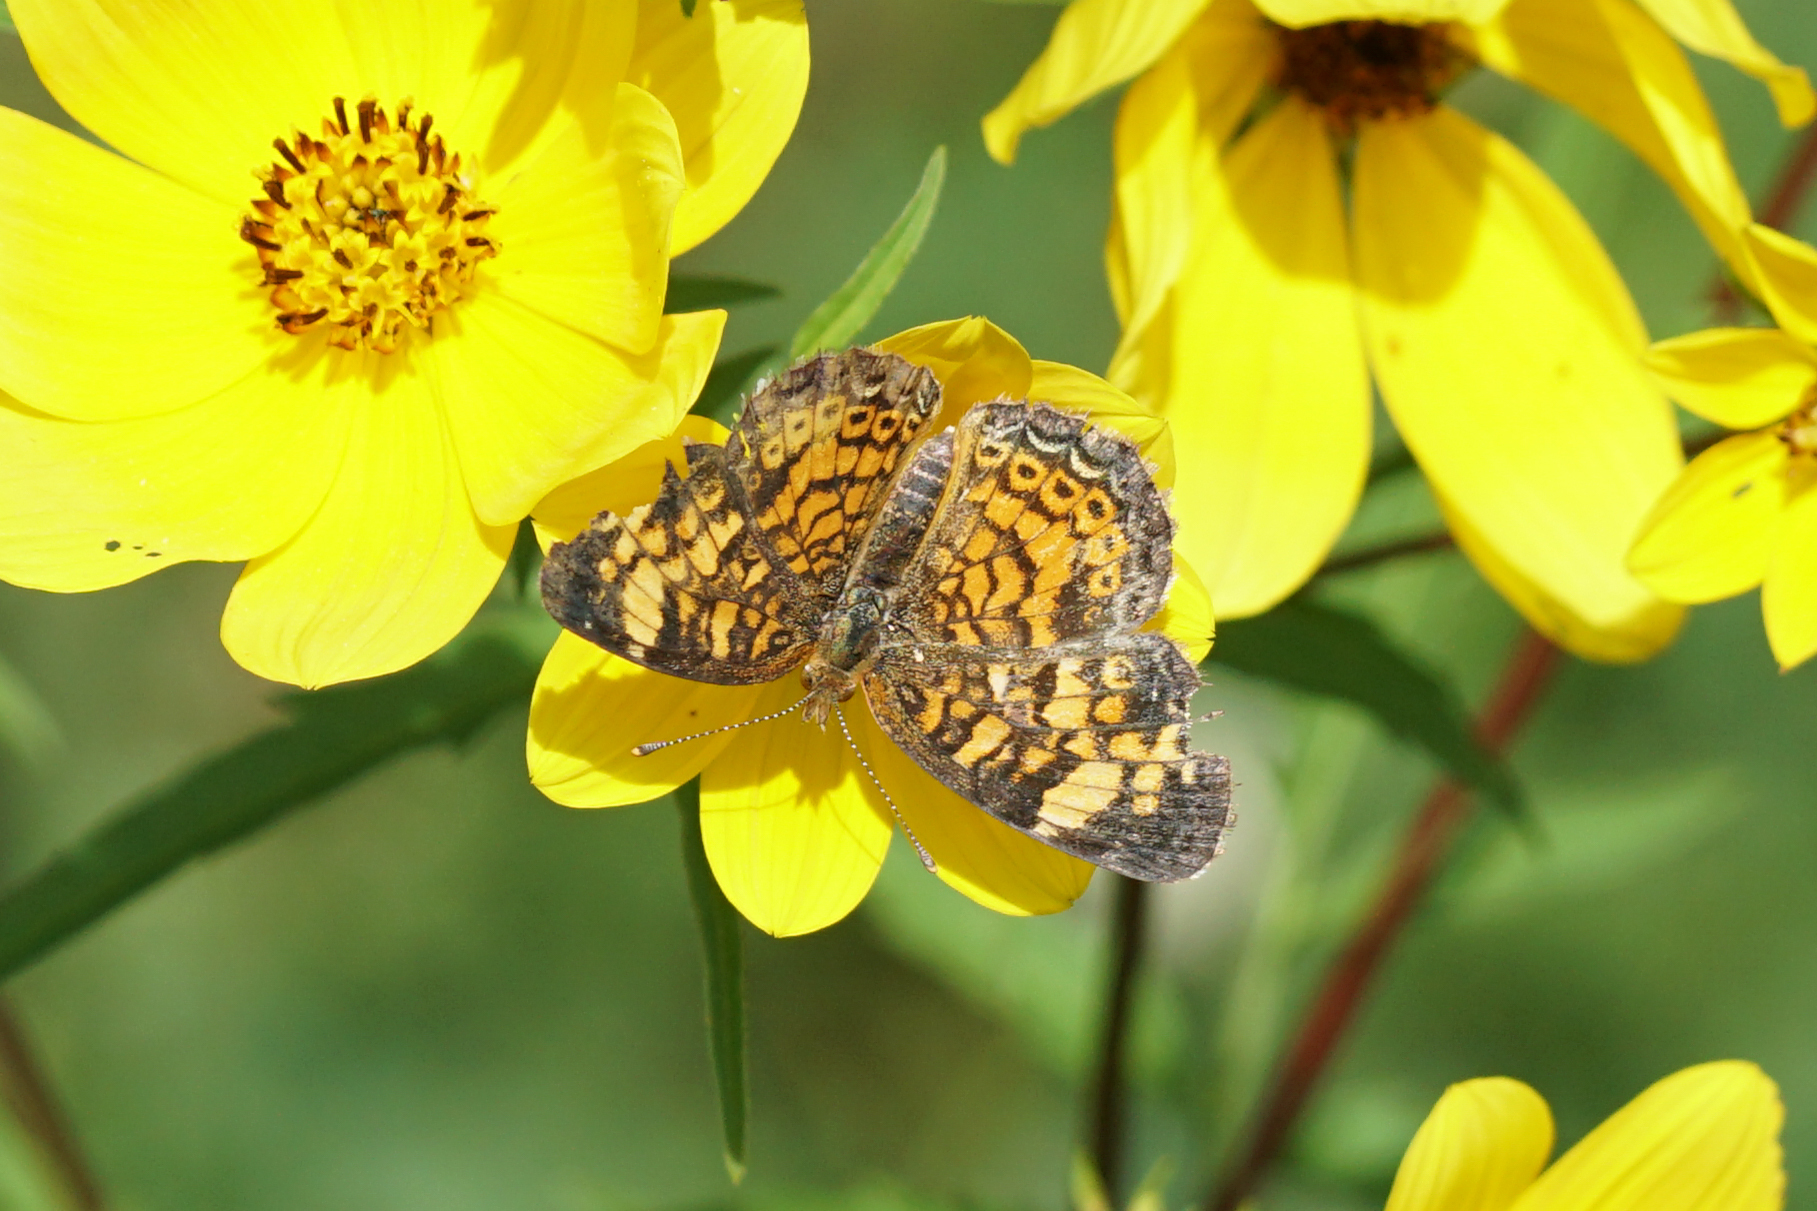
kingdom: Animalia
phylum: Arthropoda
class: Insecta
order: Lepidoptera
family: Nymphalidae
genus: Phyciodes
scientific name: Phyciodes tharos
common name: Pearl crescent
